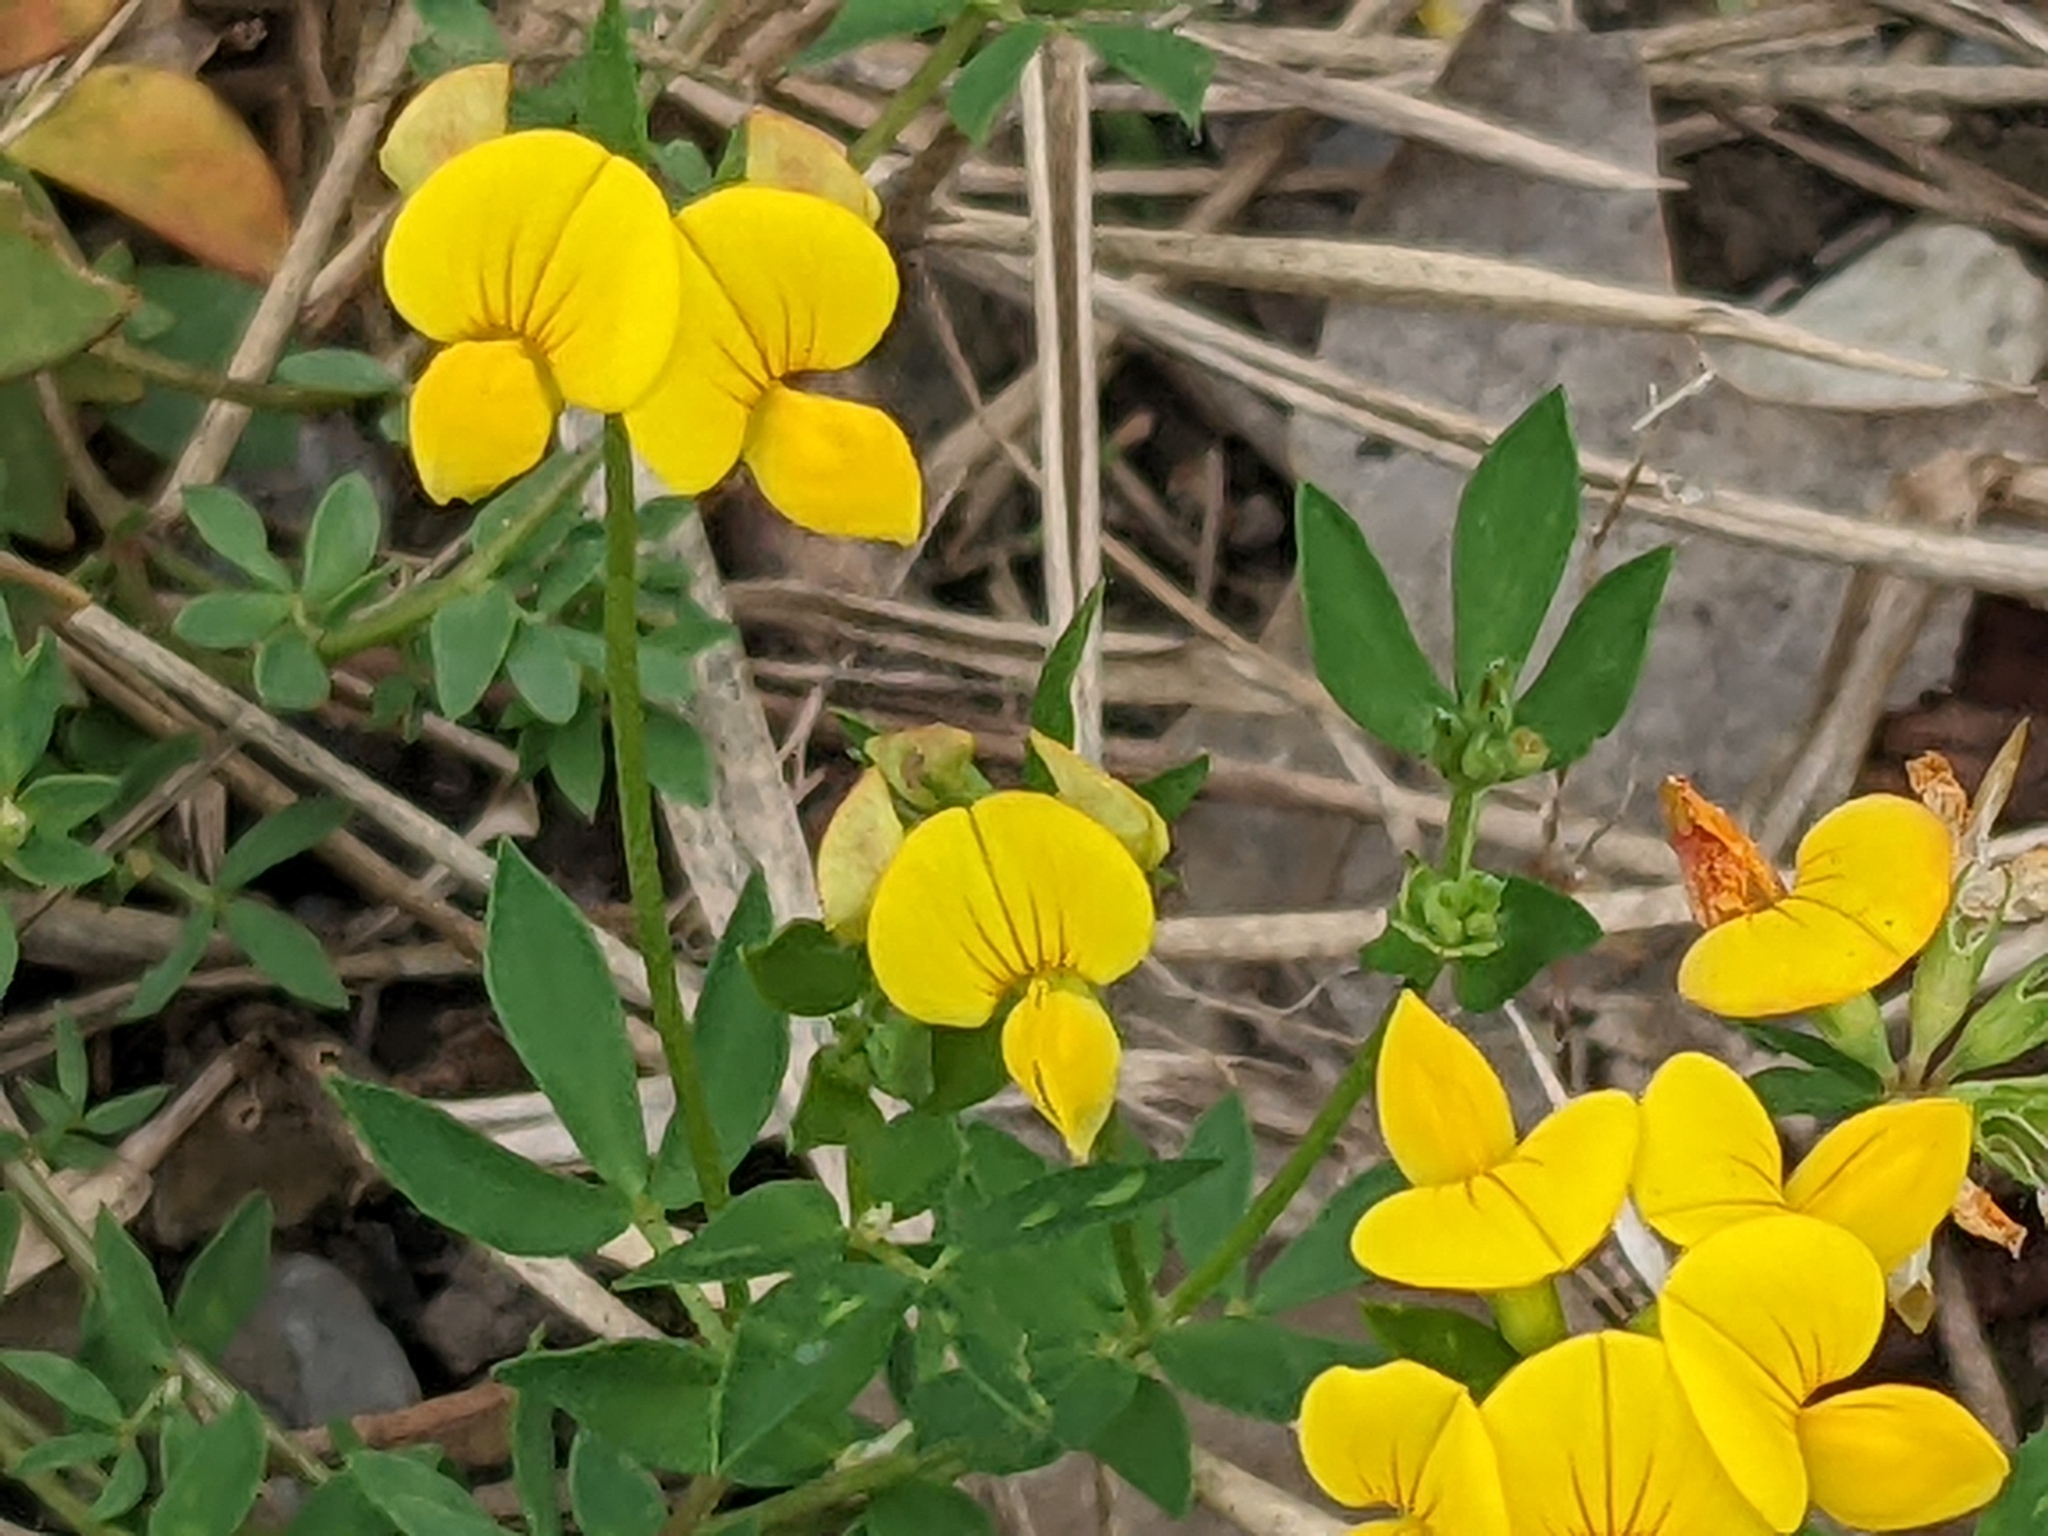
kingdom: Plantae
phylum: Tracheophyta
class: Magnoliopsida
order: Fabales
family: Fabaceae
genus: Lotus
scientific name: Lotus corniculatus
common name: Common bird's-foot-trefoil
